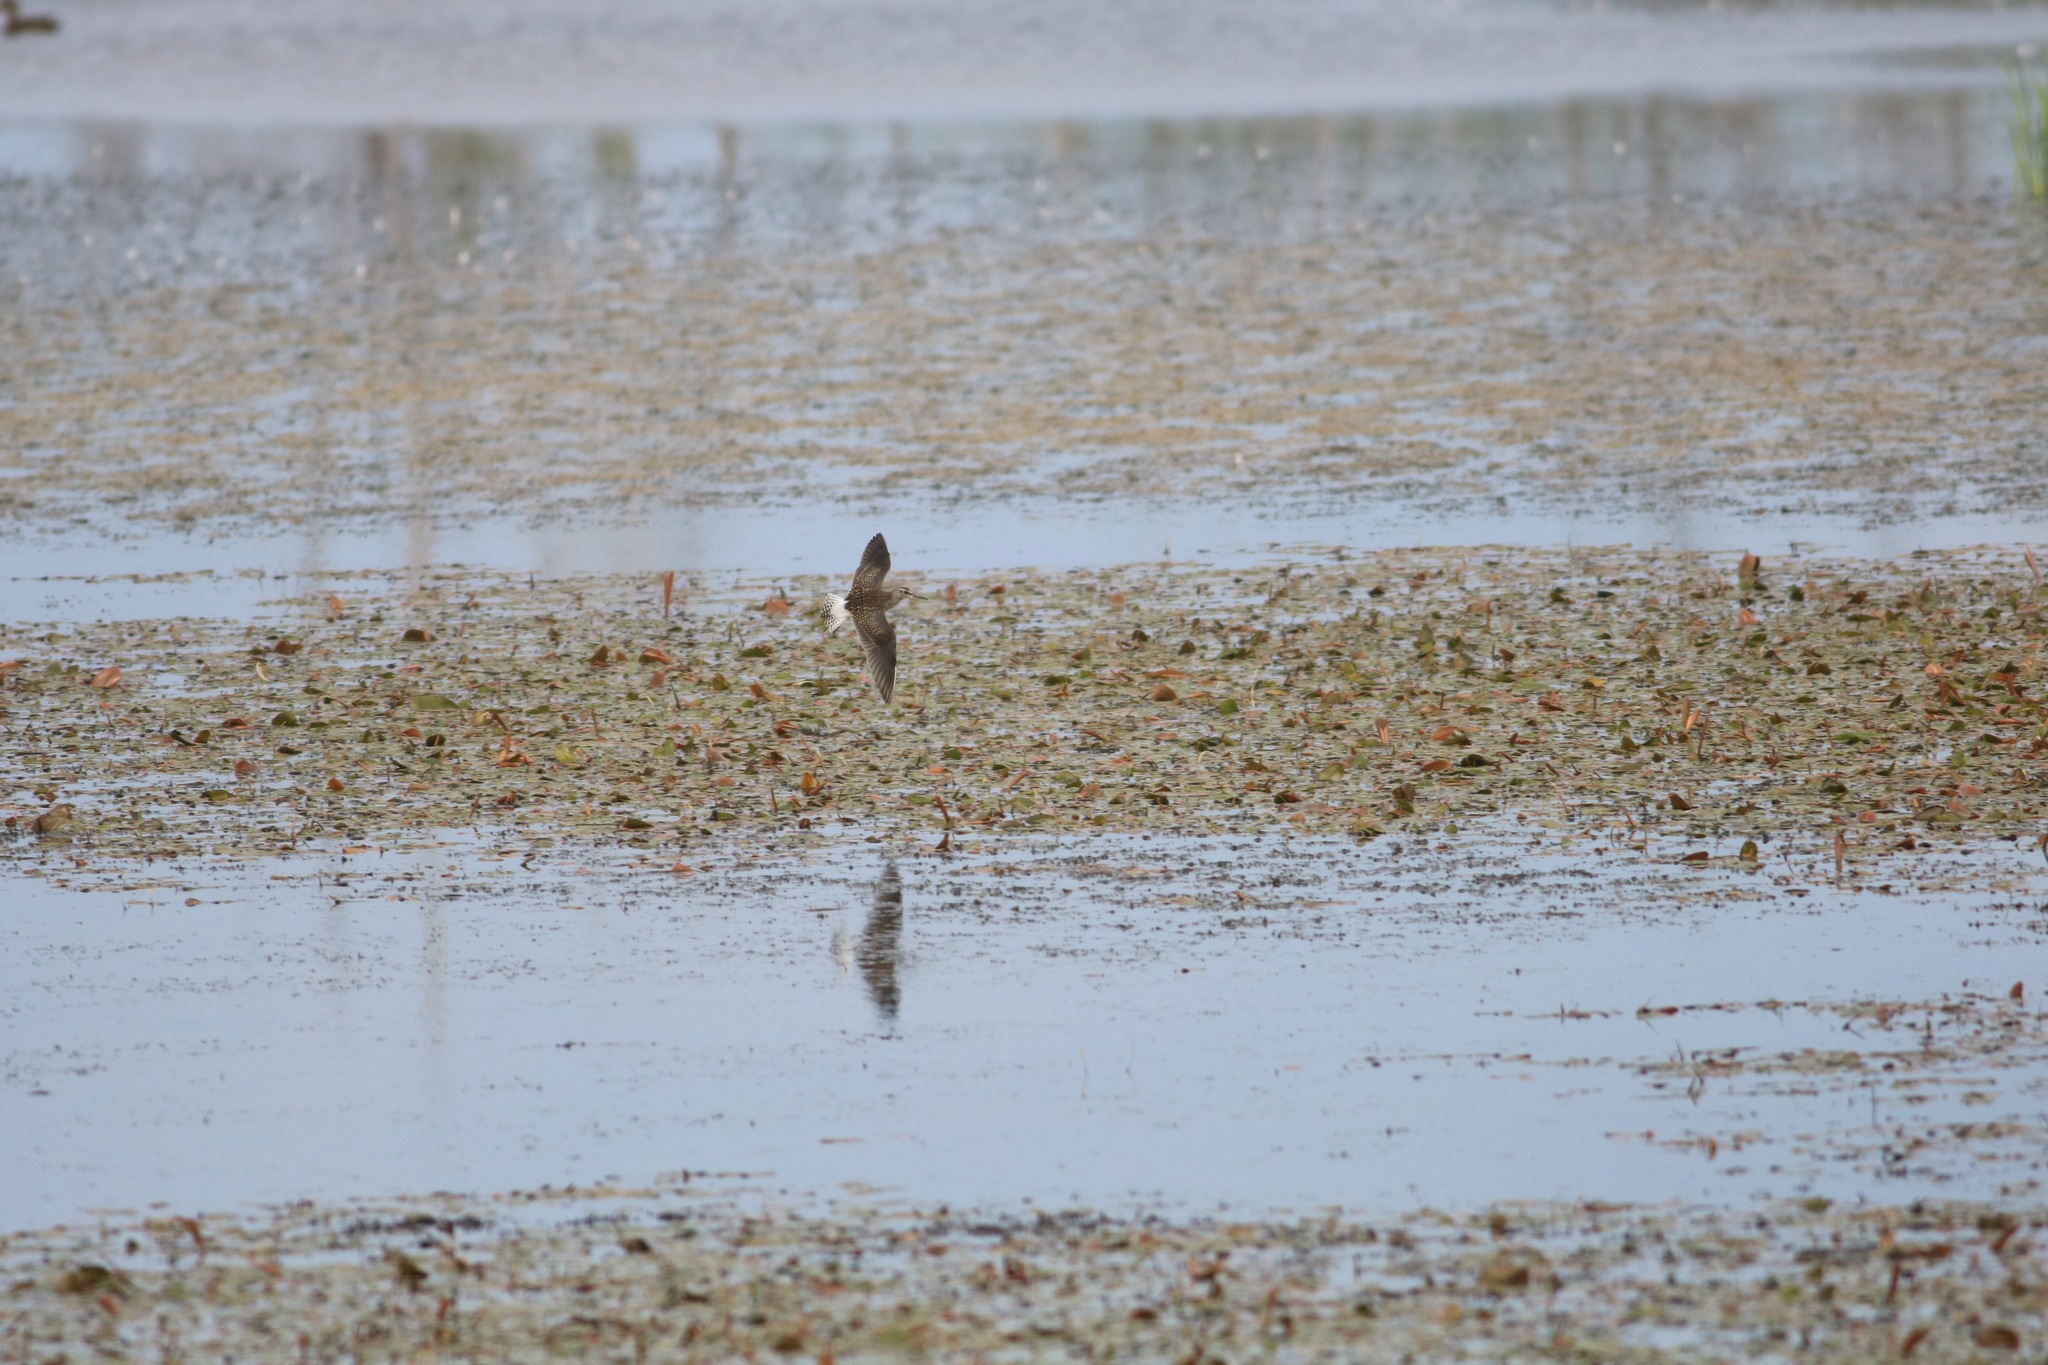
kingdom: Animalia
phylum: Chordata
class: Aves
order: Charadriiformes
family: Scolopacidae
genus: Tringa
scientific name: Tringa glareola
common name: Wood sandpiper
